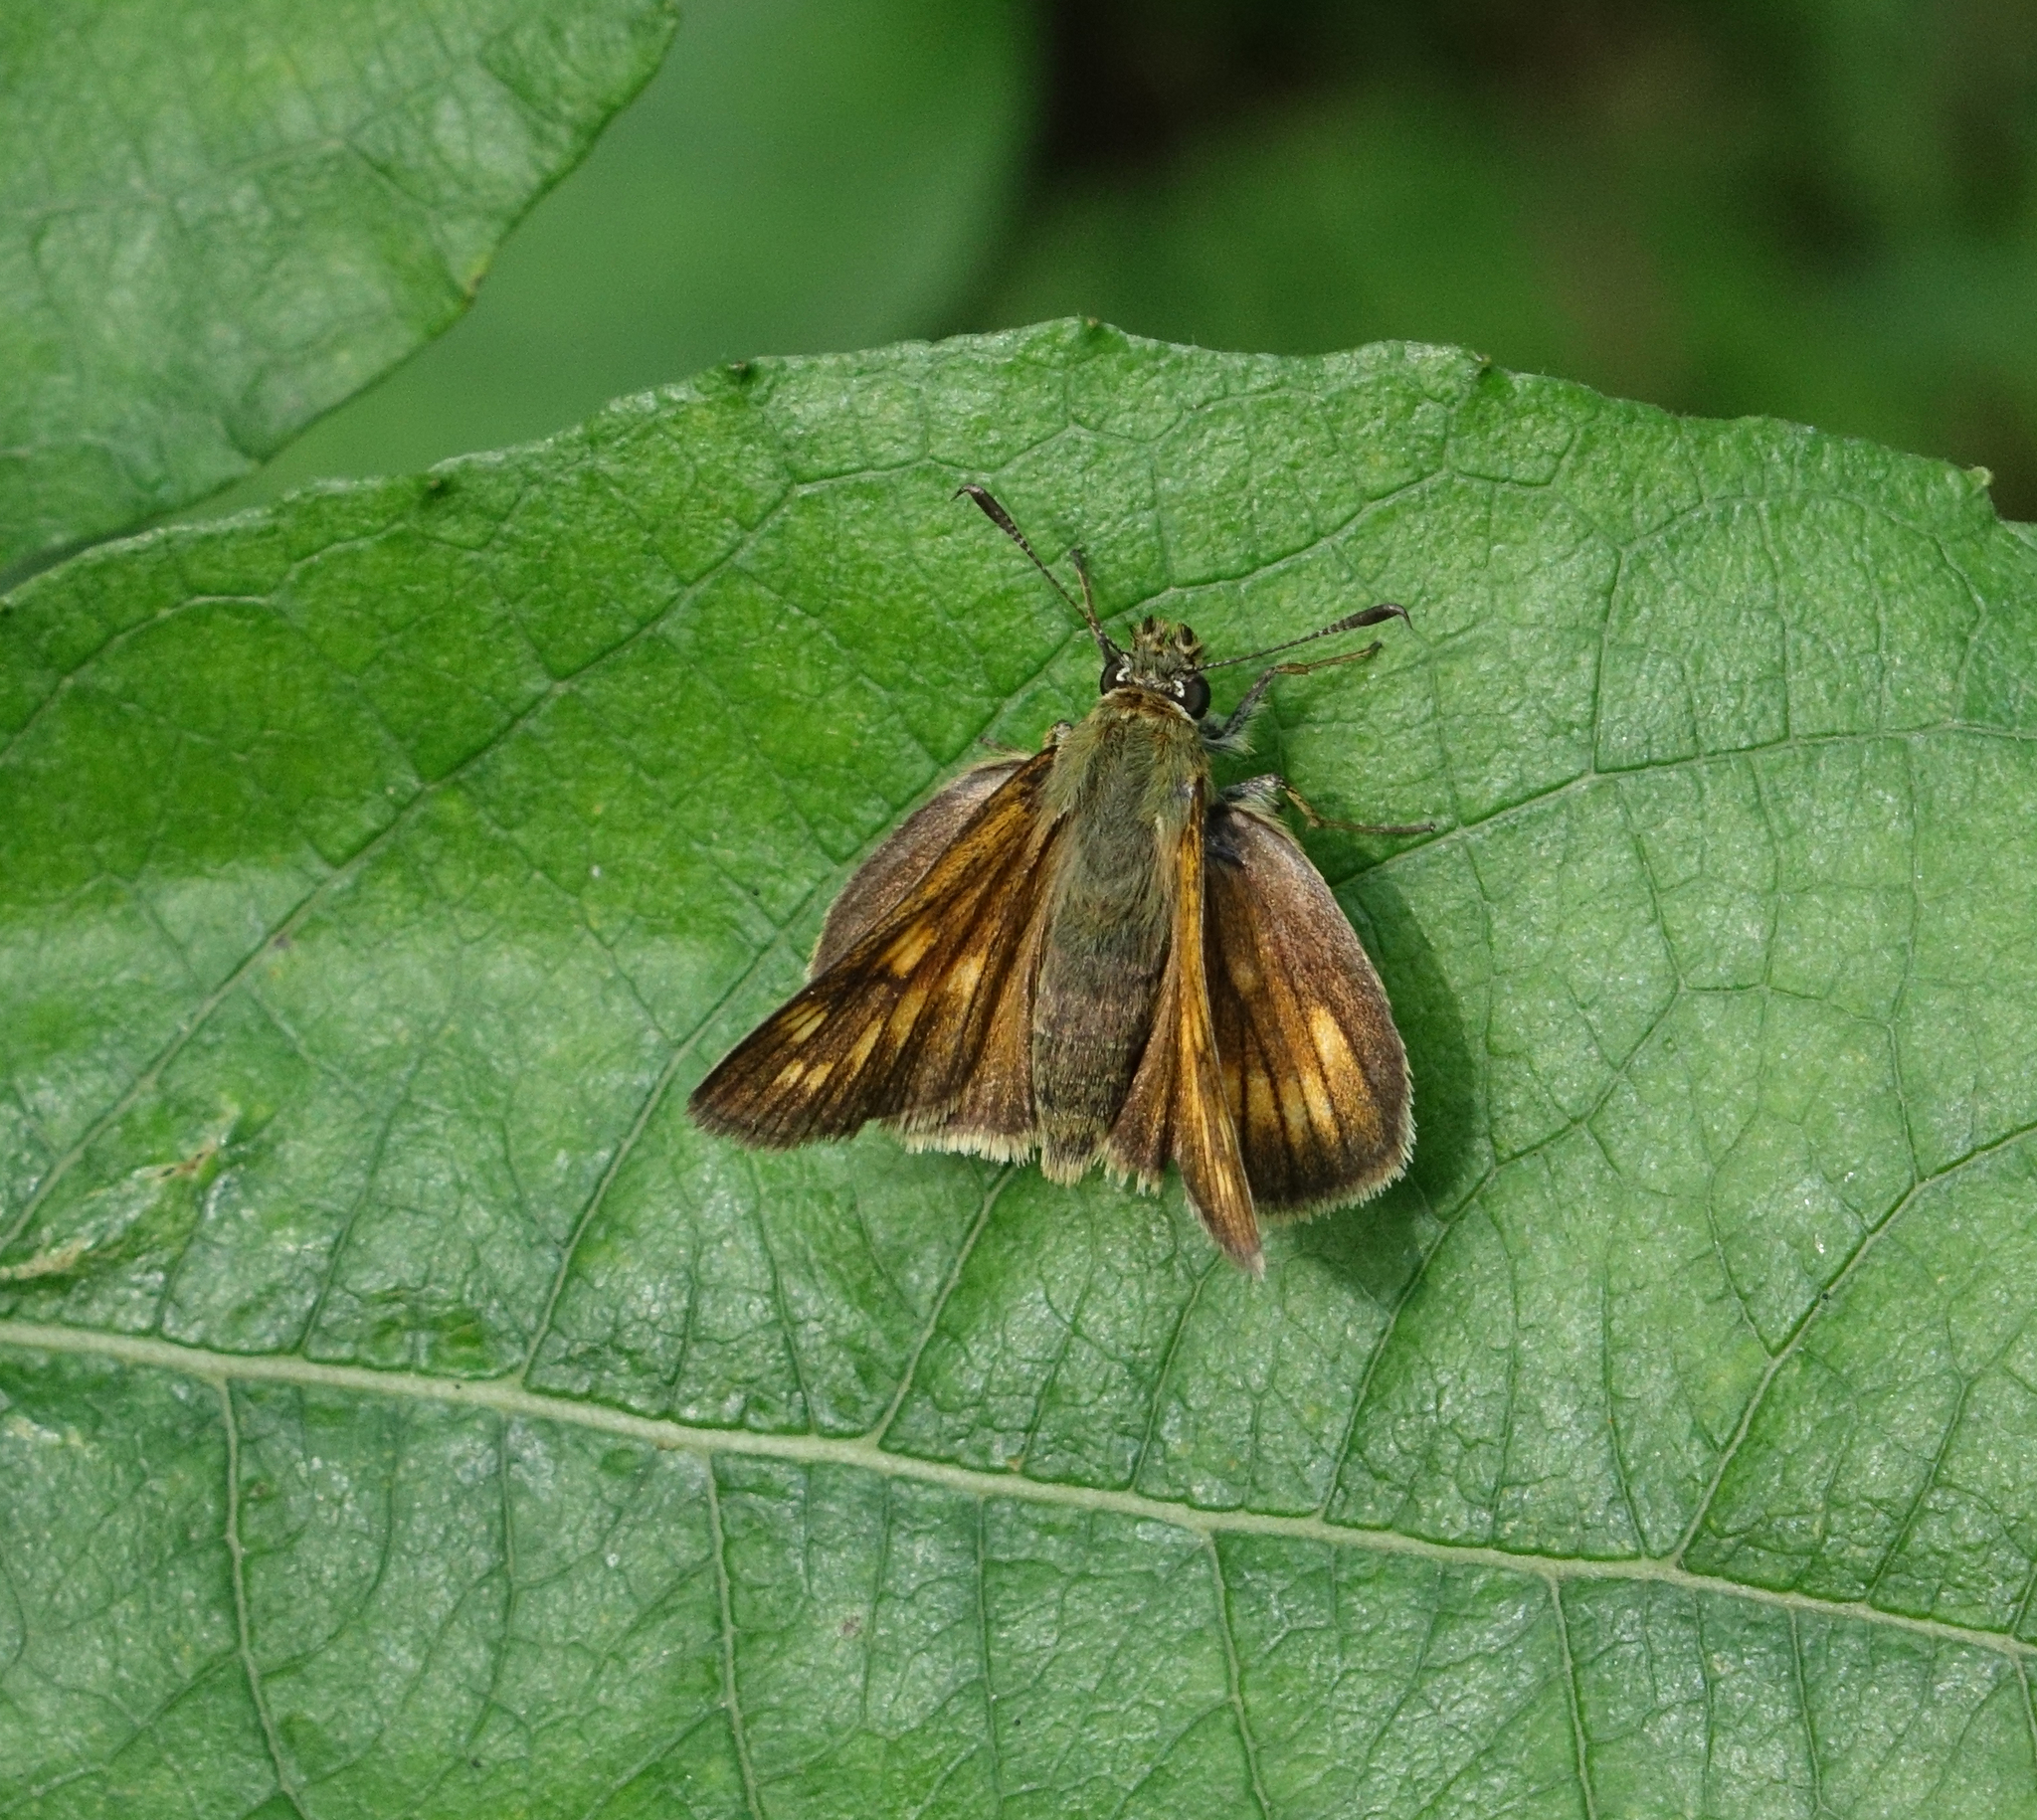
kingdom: Animalia
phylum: Arthropoda
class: Insecta
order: Lepidoptera
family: Hesperiidae
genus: Ochlodes
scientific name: Ochlodes venata
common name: Large skipper
